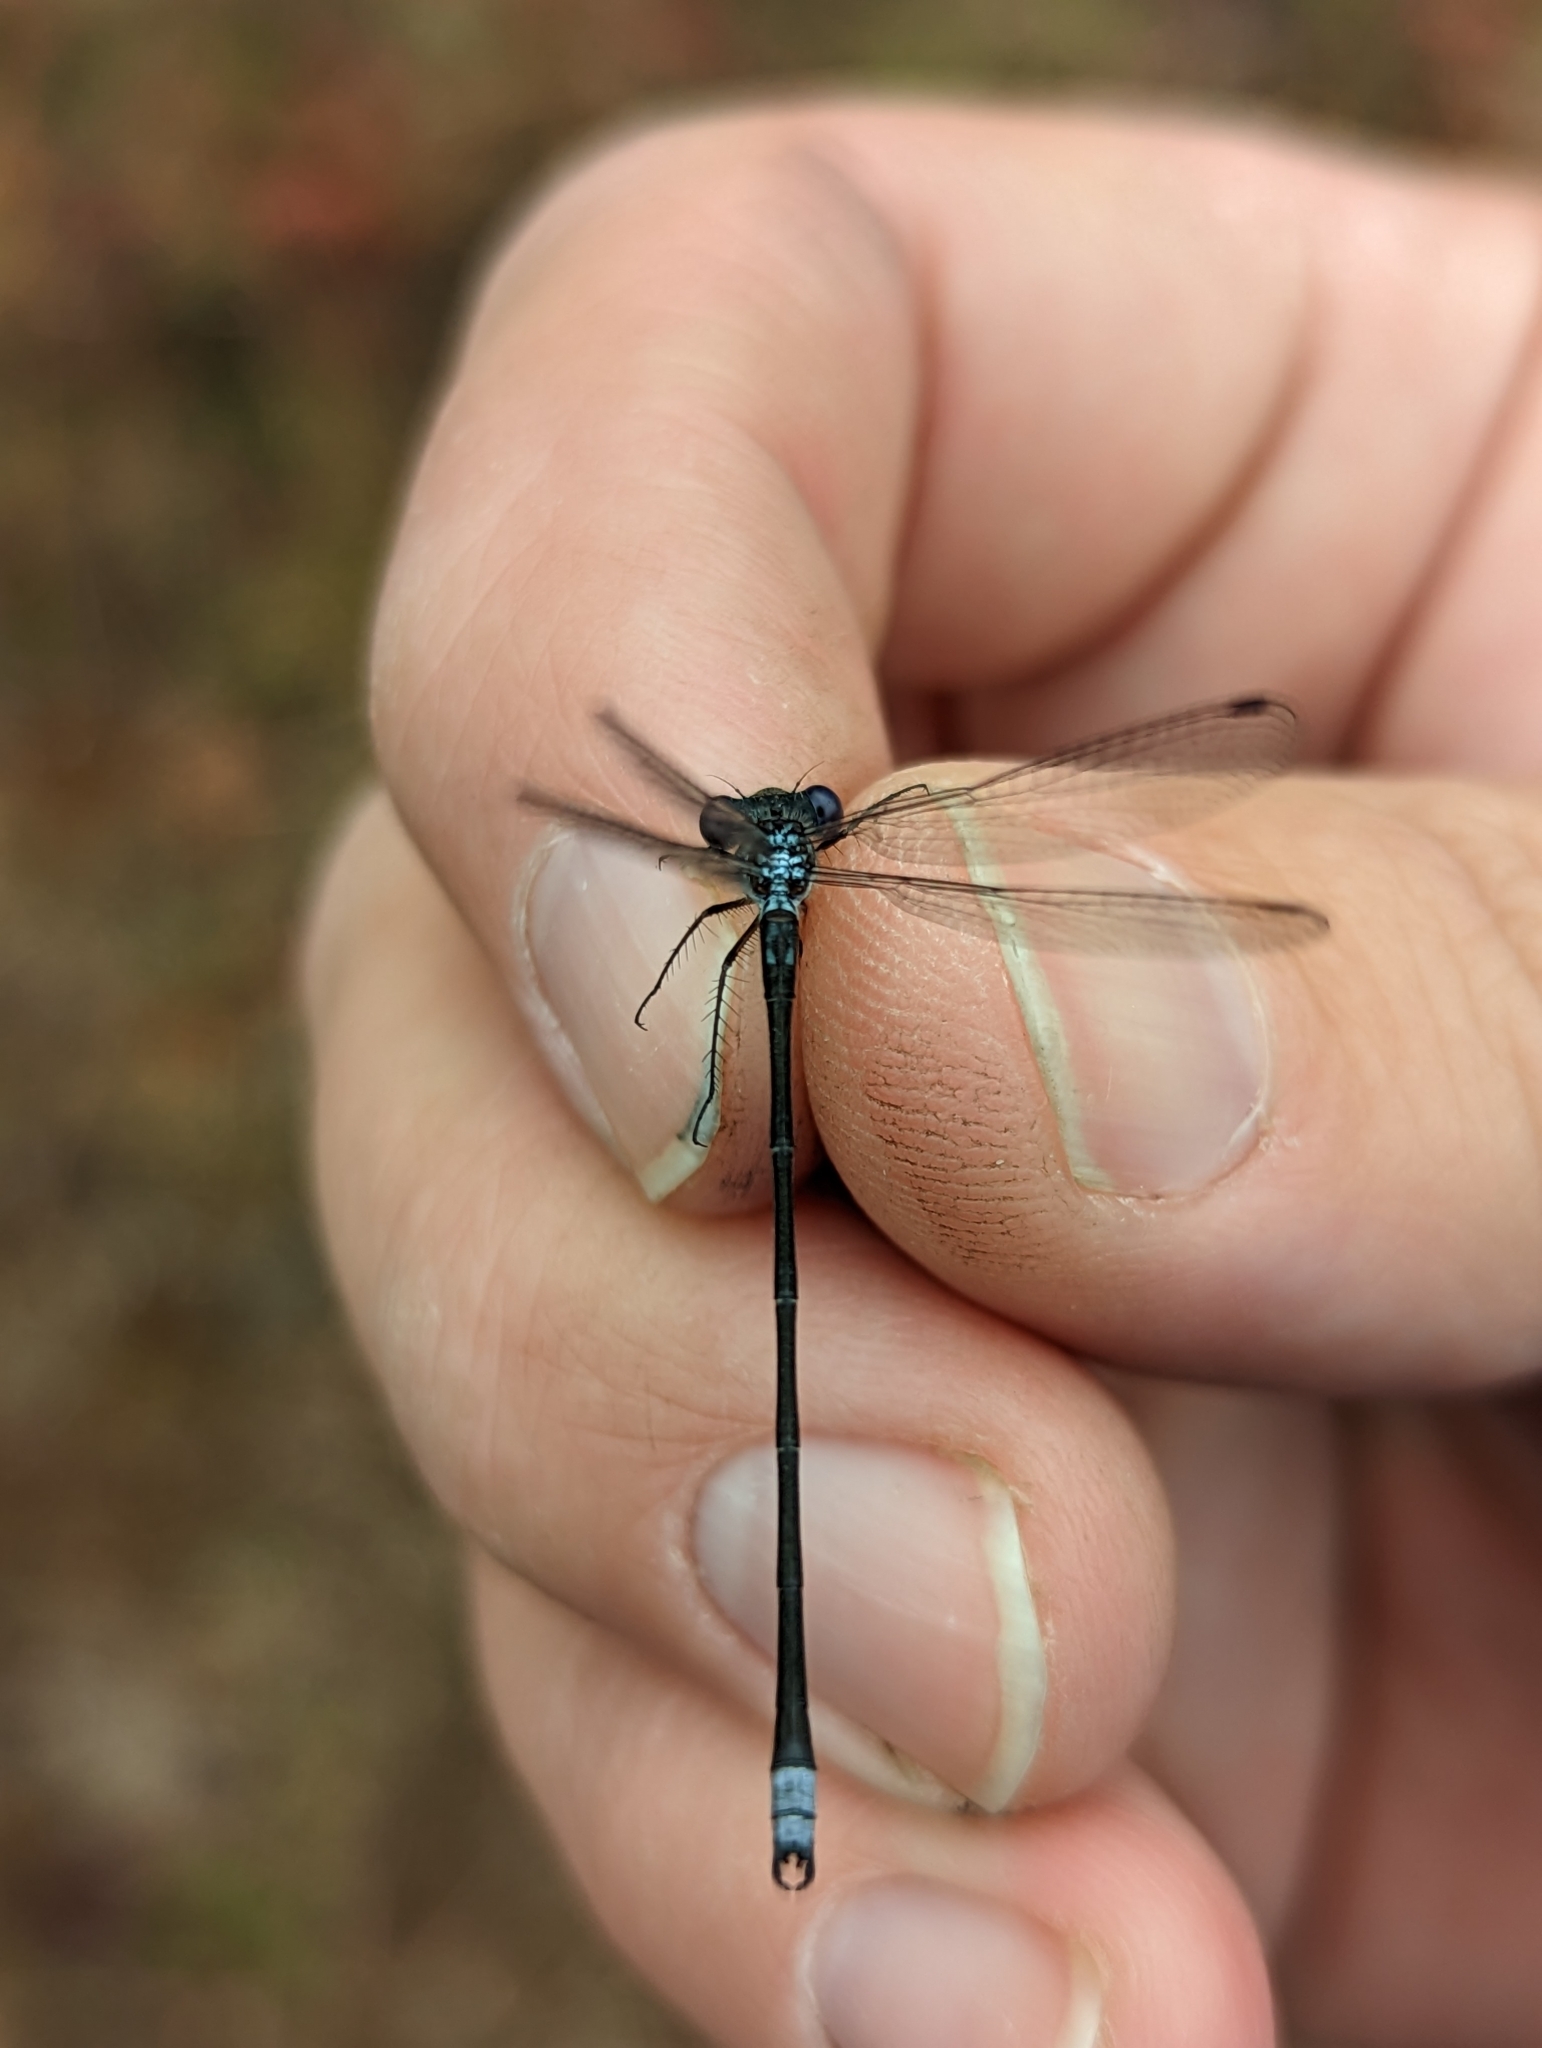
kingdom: Animalia
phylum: Arthropoda
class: Insecta
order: Odonata
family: Lestidae
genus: Lestes
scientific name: Lestes congener
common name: Spotted spreadwing
